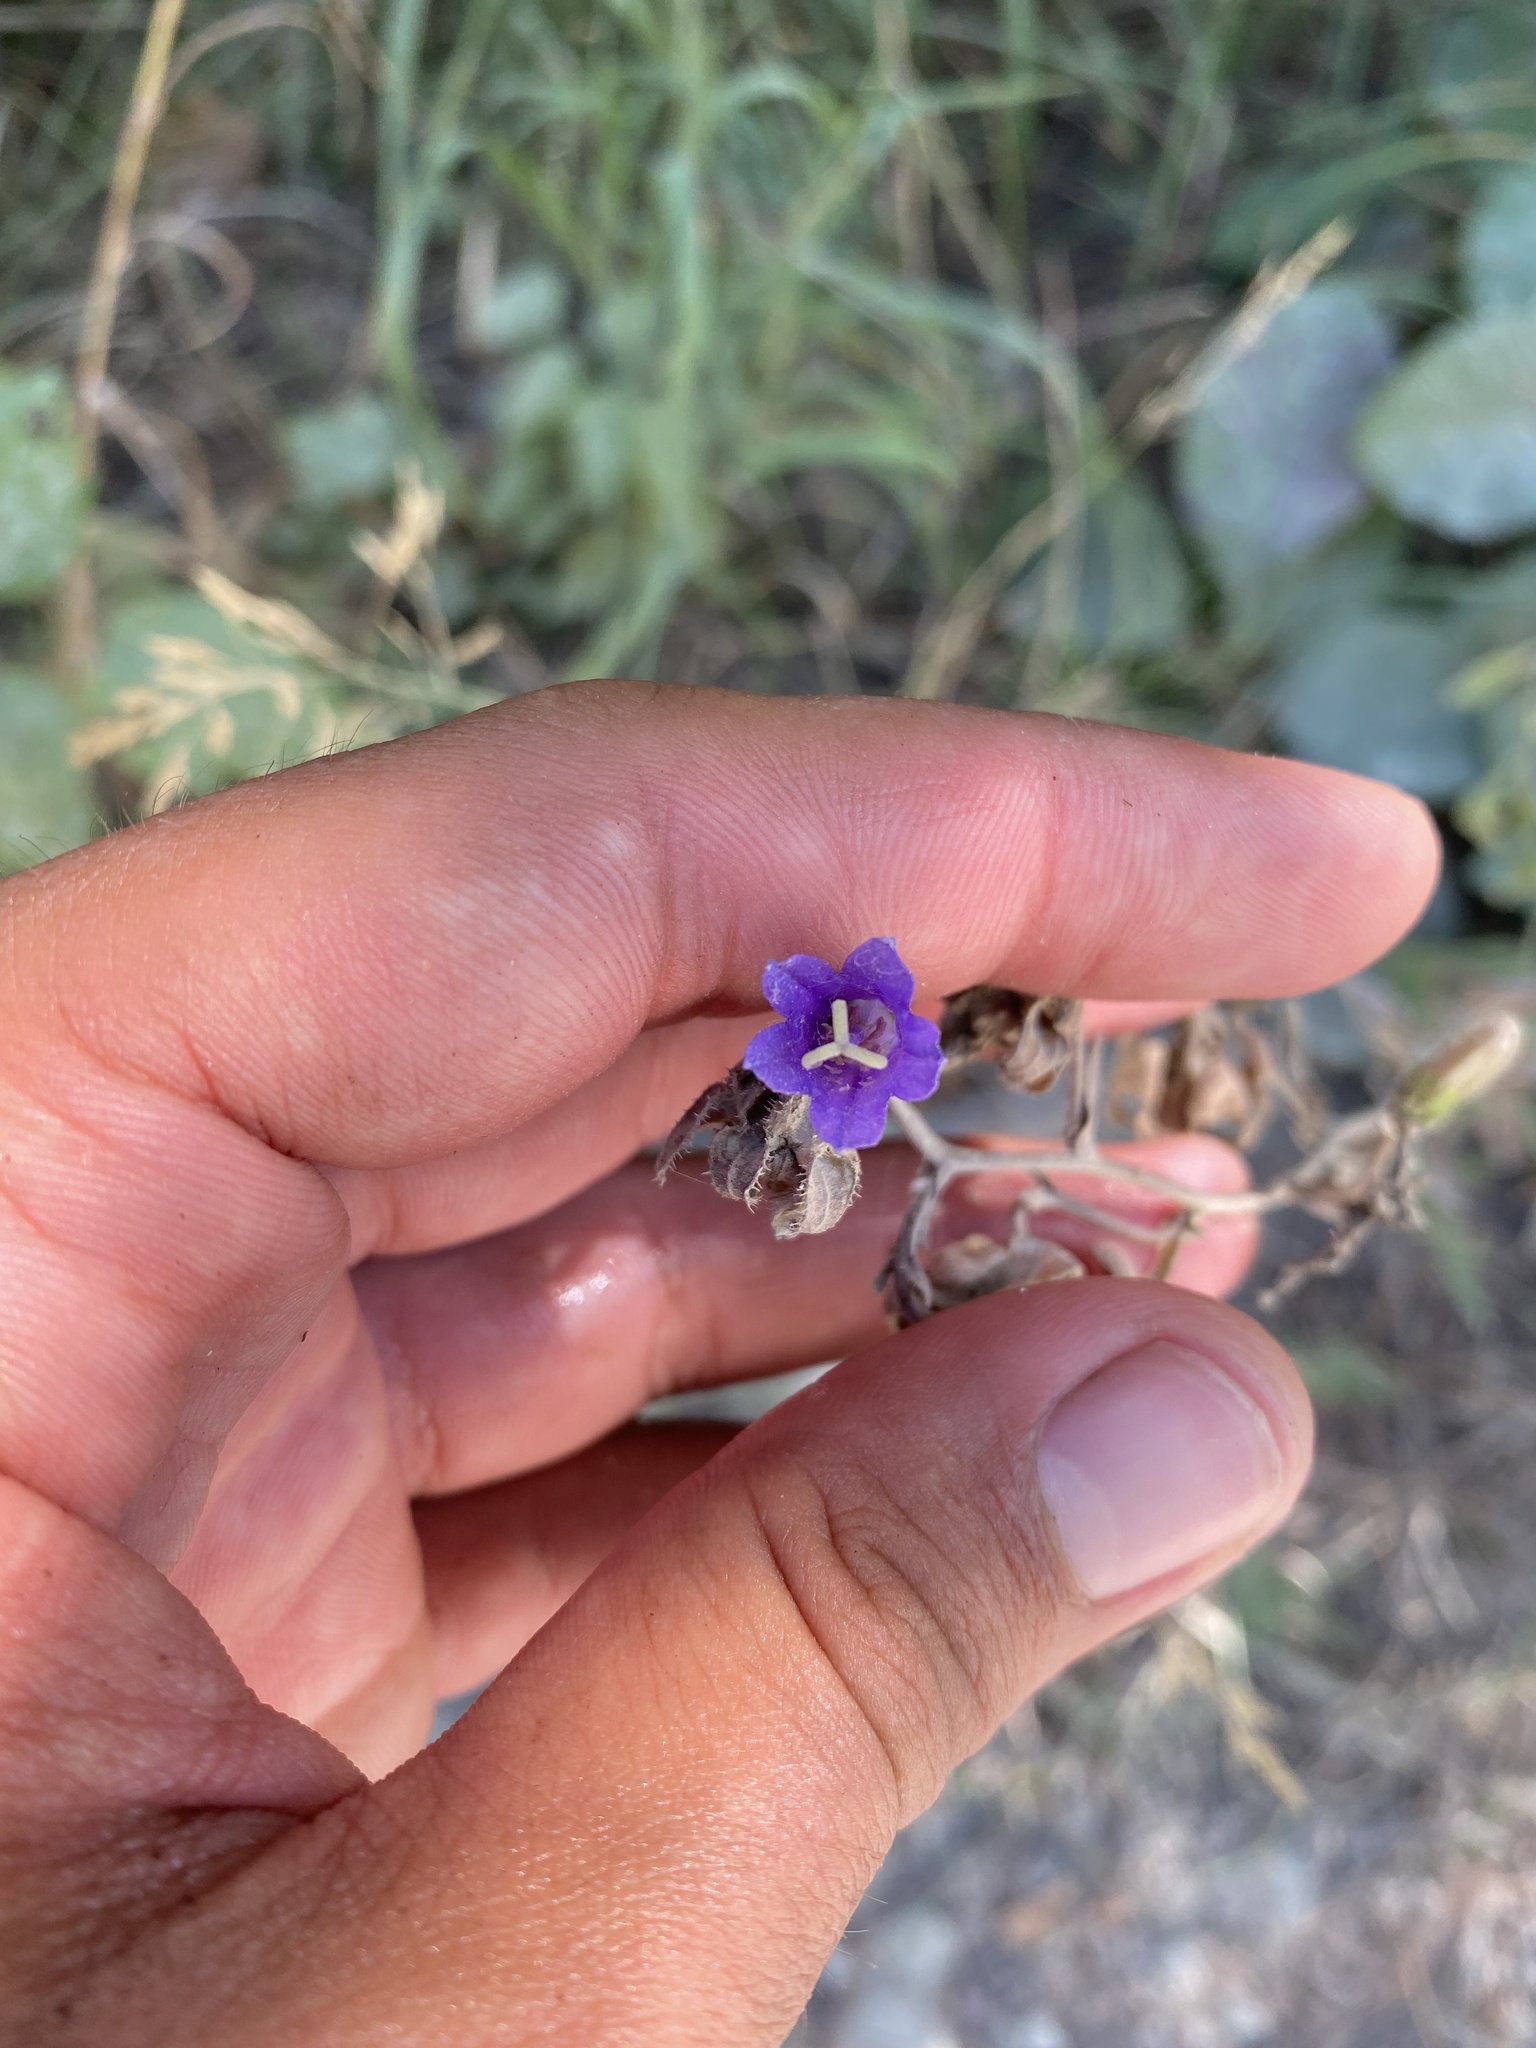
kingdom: Plantae
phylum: Tracheophyta
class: Magnoliopsida
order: Asterales
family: Campanulaceae
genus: Campanula
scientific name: Campanula komarovii
